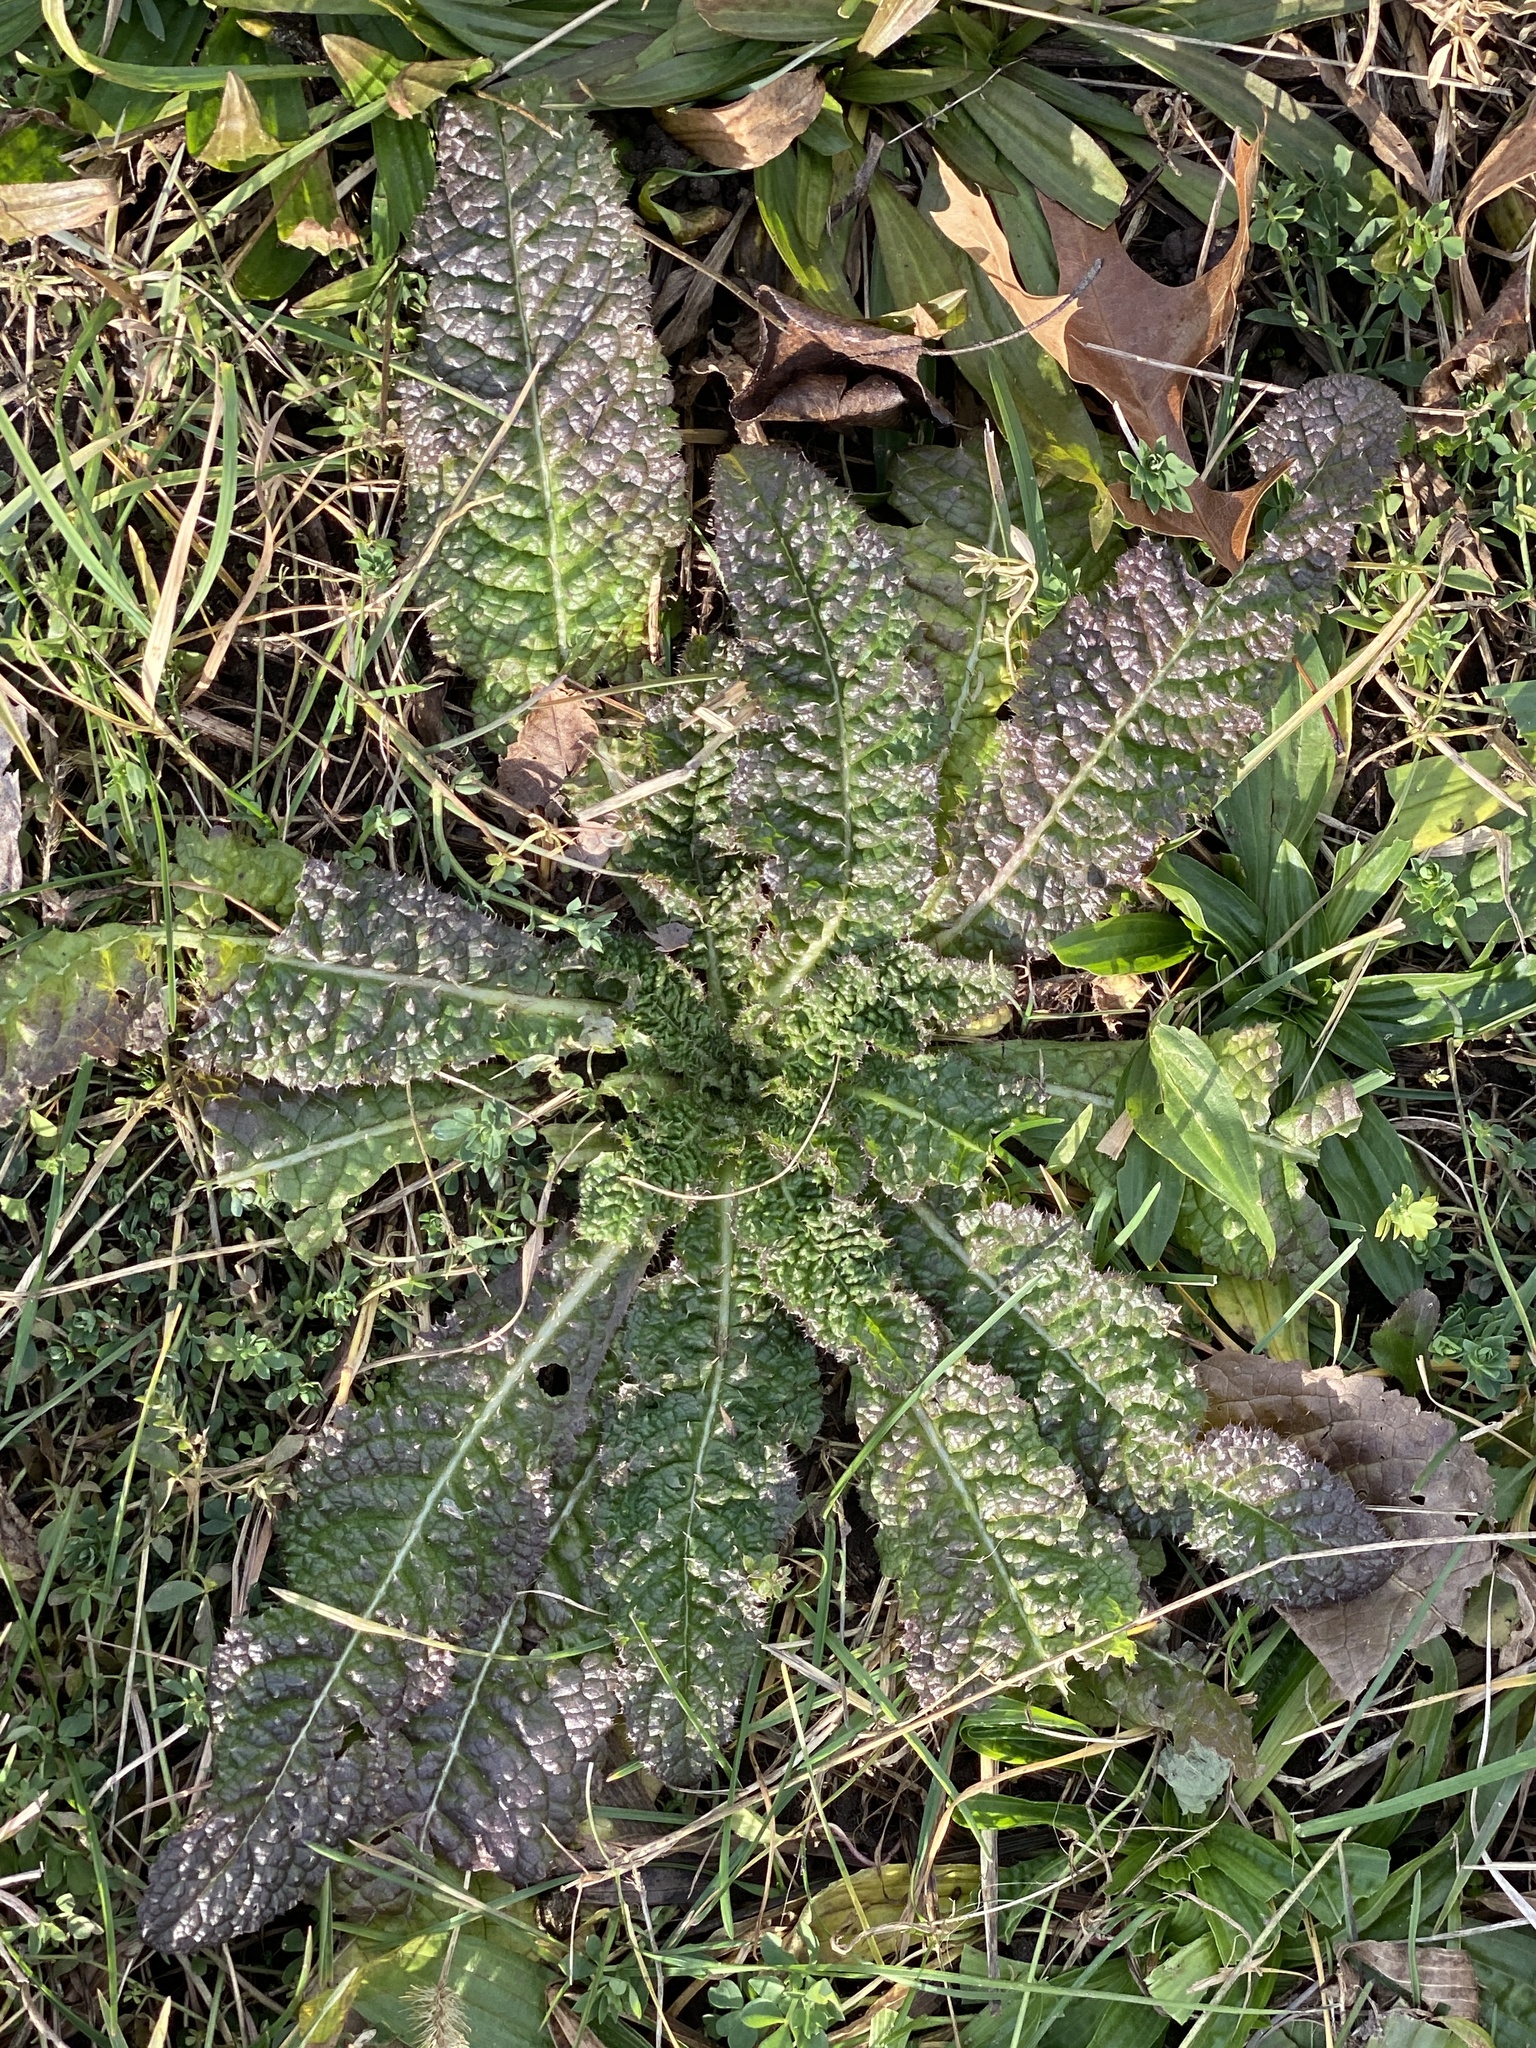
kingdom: Plantae
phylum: Tracheophyta
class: Magnoliopsida
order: Dipsacales
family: Caprifoliaceae
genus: Dipsacus
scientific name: Dipsacus fullonum
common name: Teasel
